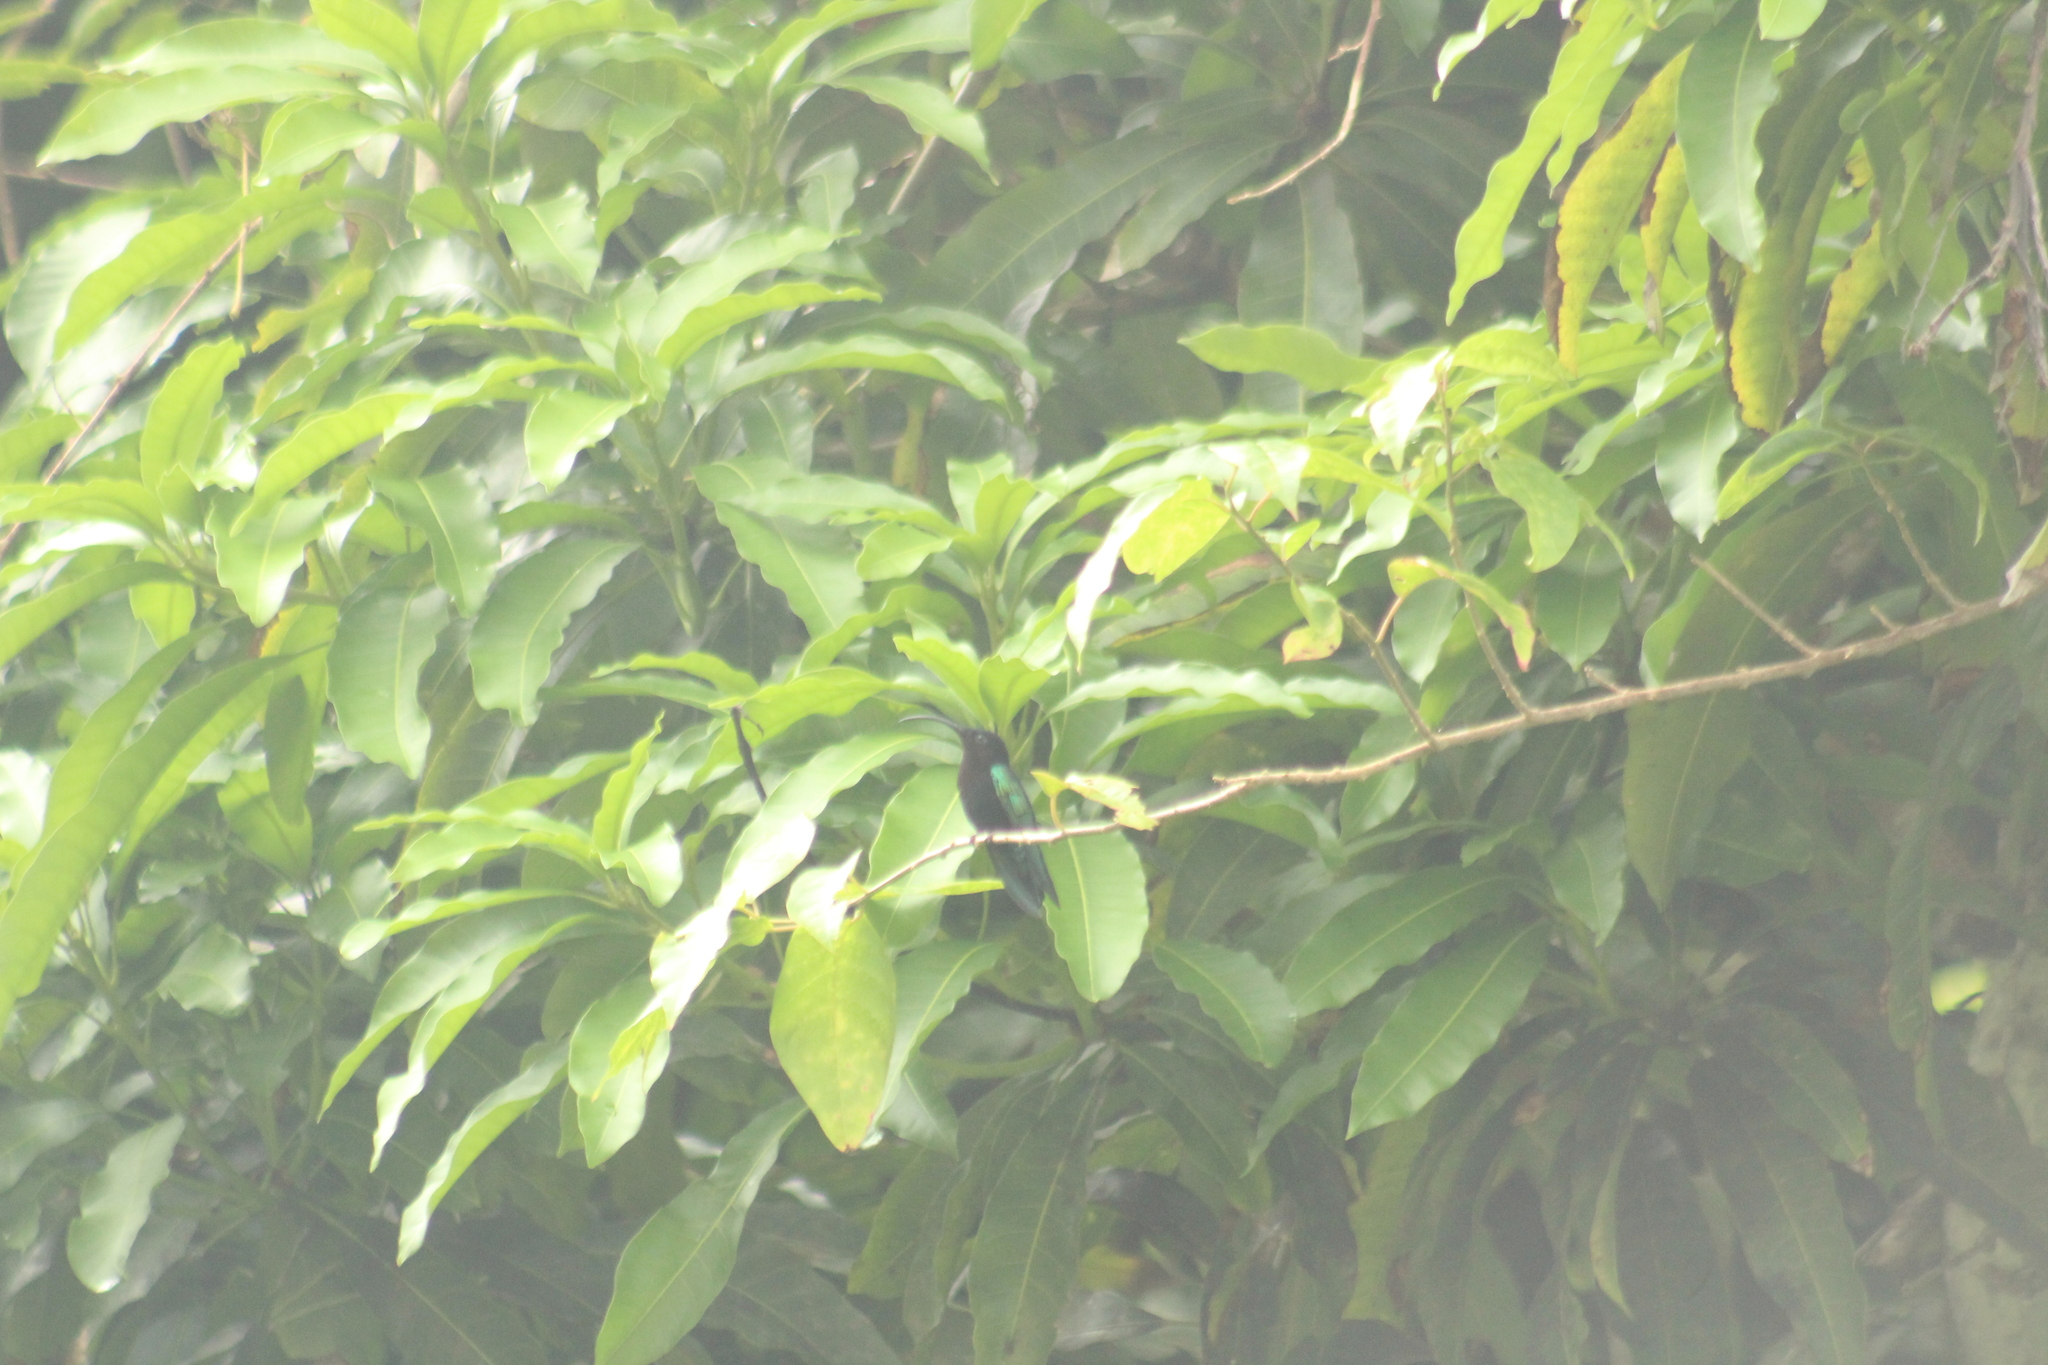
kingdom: Animalia
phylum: Chordata
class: Aves
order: Apodiformes
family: Trochilidae
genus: Eulampis
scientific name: Eulampis jugularis
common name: Purple-throated carib
